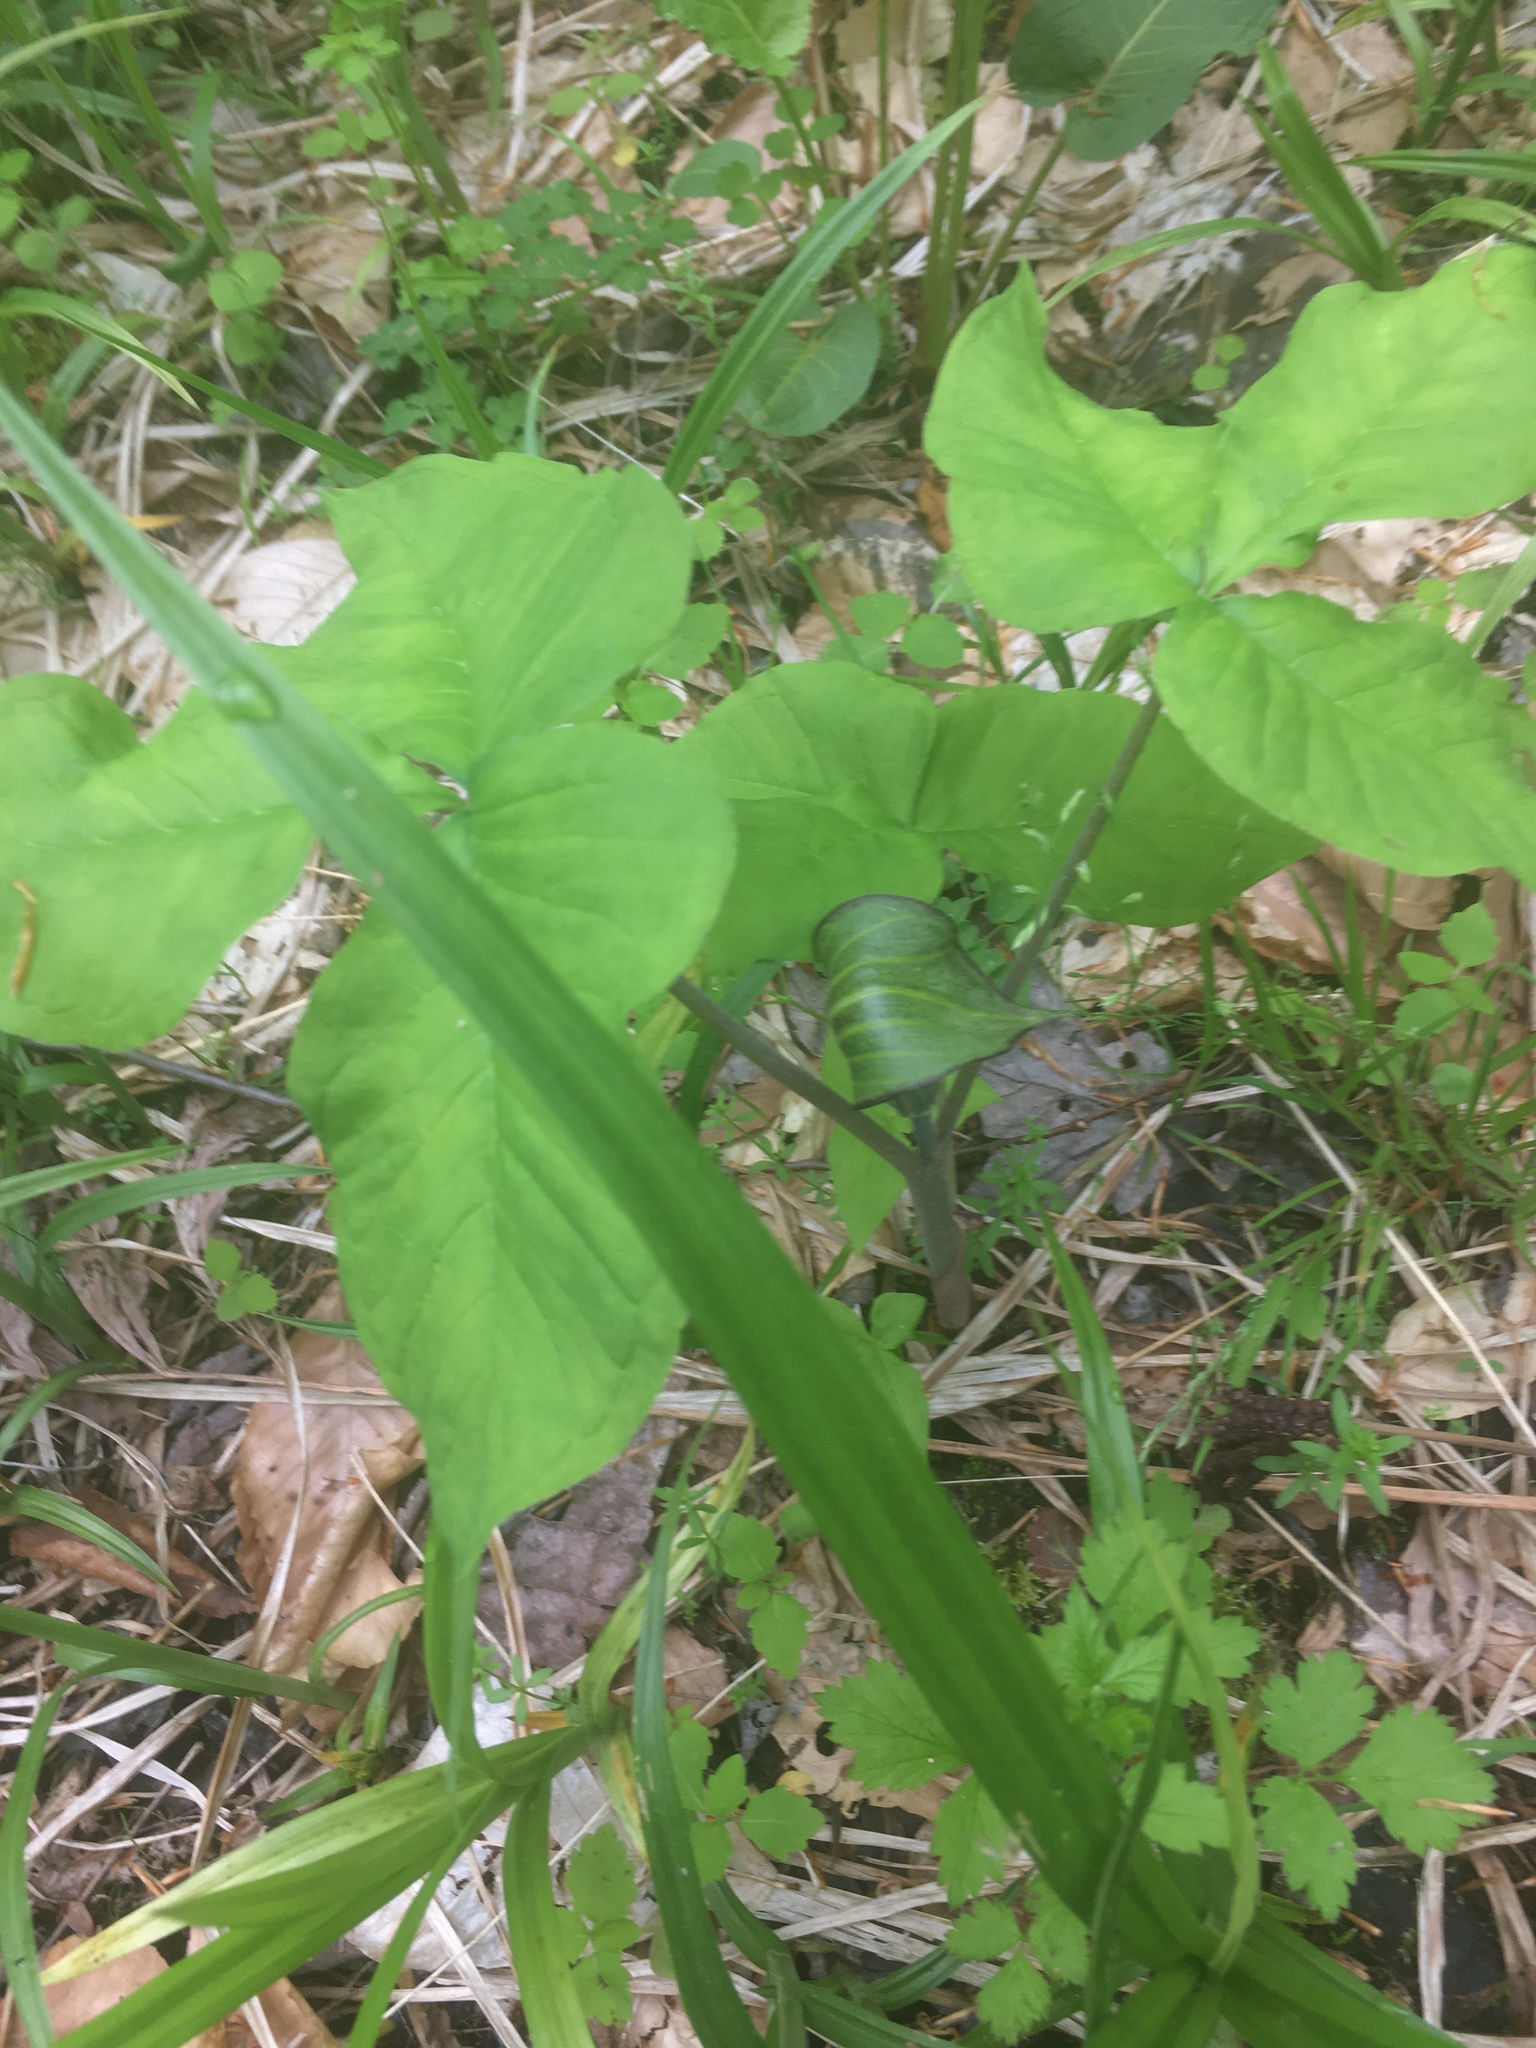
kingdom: Plantae
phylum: Tracheophyta
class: Liliopsida
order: Alismatales
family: Araceae
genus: Arisaema
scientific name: Arisaema triphyllum
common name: Jack-in-the-pulpit
